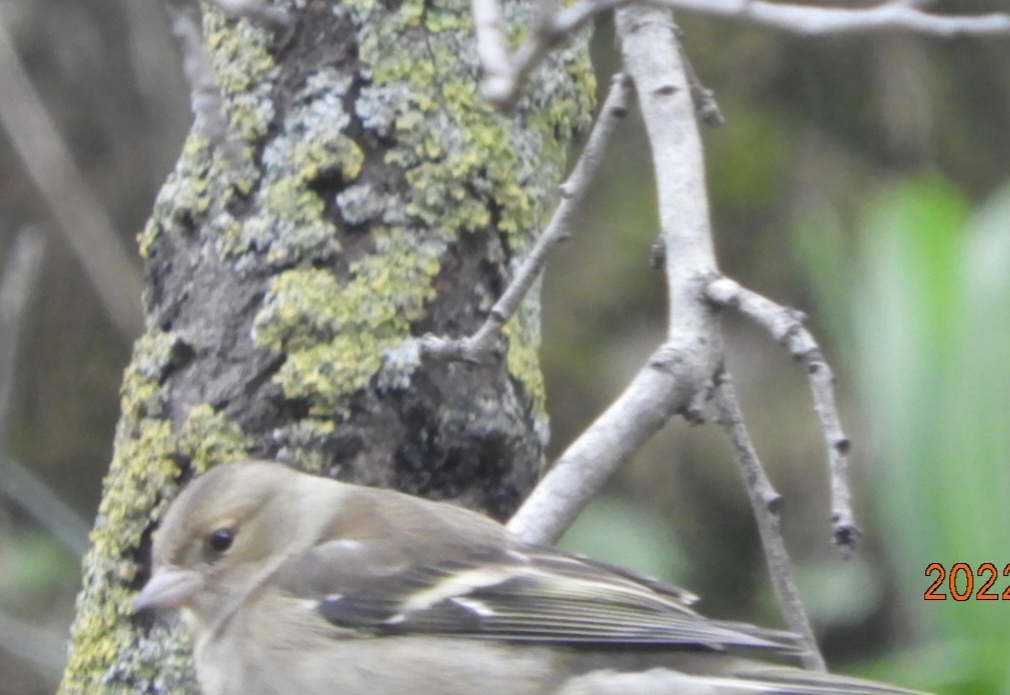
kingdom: Animalia
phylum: Chordata
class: Aves
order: Passeriformes
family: Fringillidae
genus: Fringilla
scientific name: Fringilla coelebs
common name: Common chaffinch
